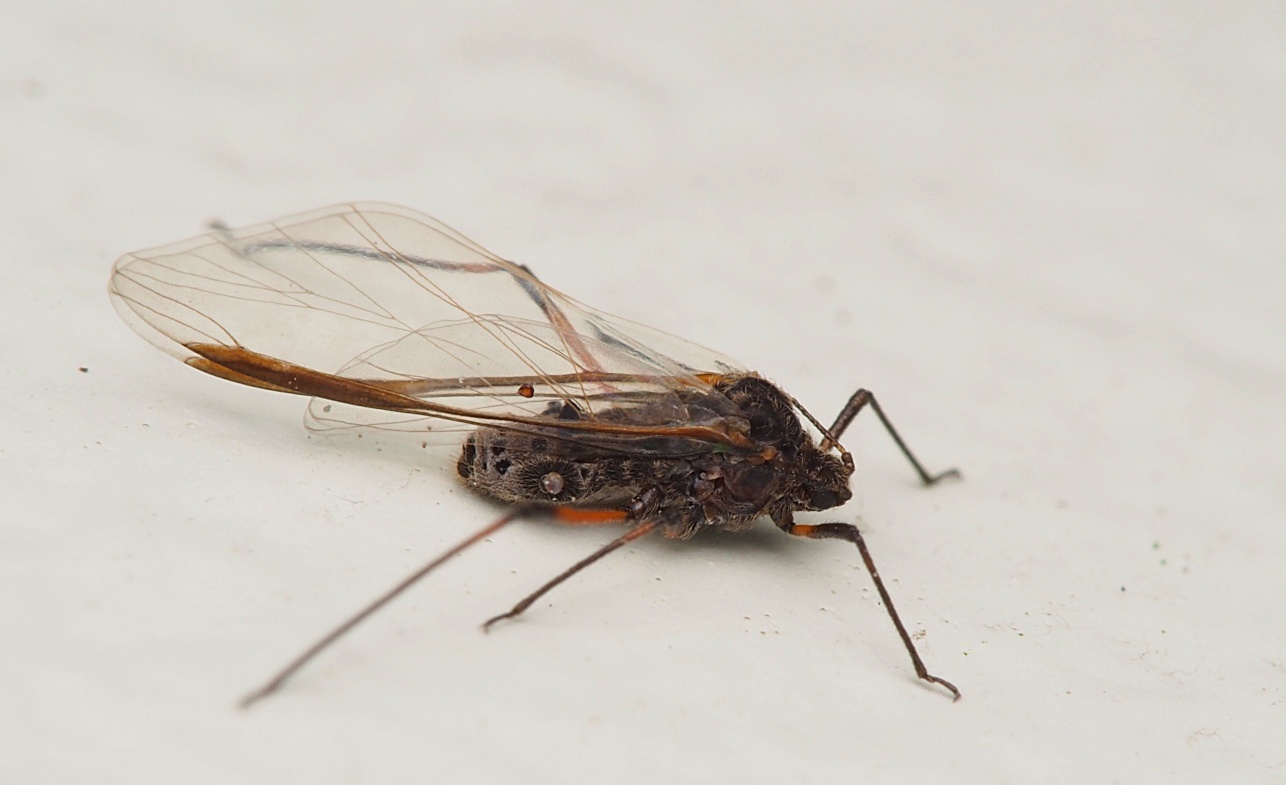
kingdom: Animalia
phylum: Arthropoda
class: Insecta
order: Hemiptera
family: Aphididae
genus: Tuberolachnus
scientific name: Tuberolachnus salignus
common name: Giant willow aphid
